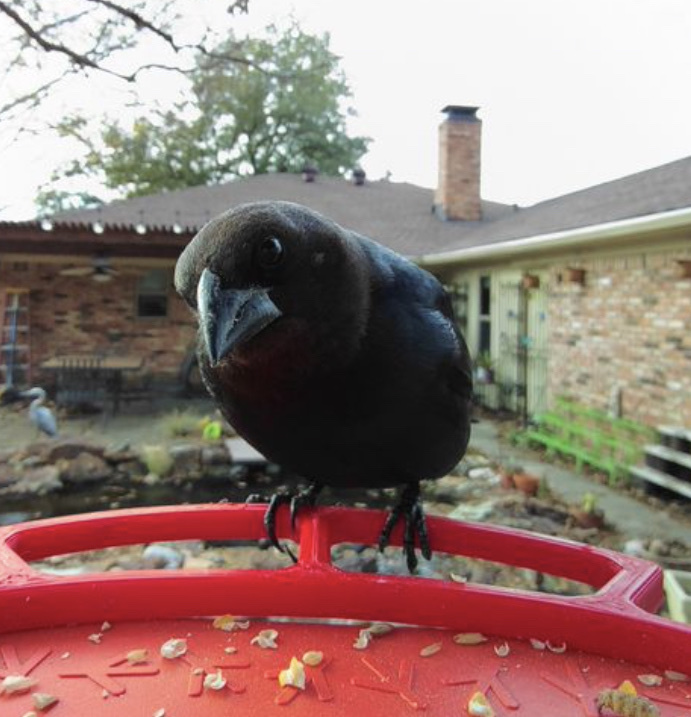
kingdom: Animalia
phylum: Chordata
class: Aves
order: Passeriformes
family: Icteridae
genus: Molothrus
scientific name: Molothrus ater
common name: Brown-headed cowbird
